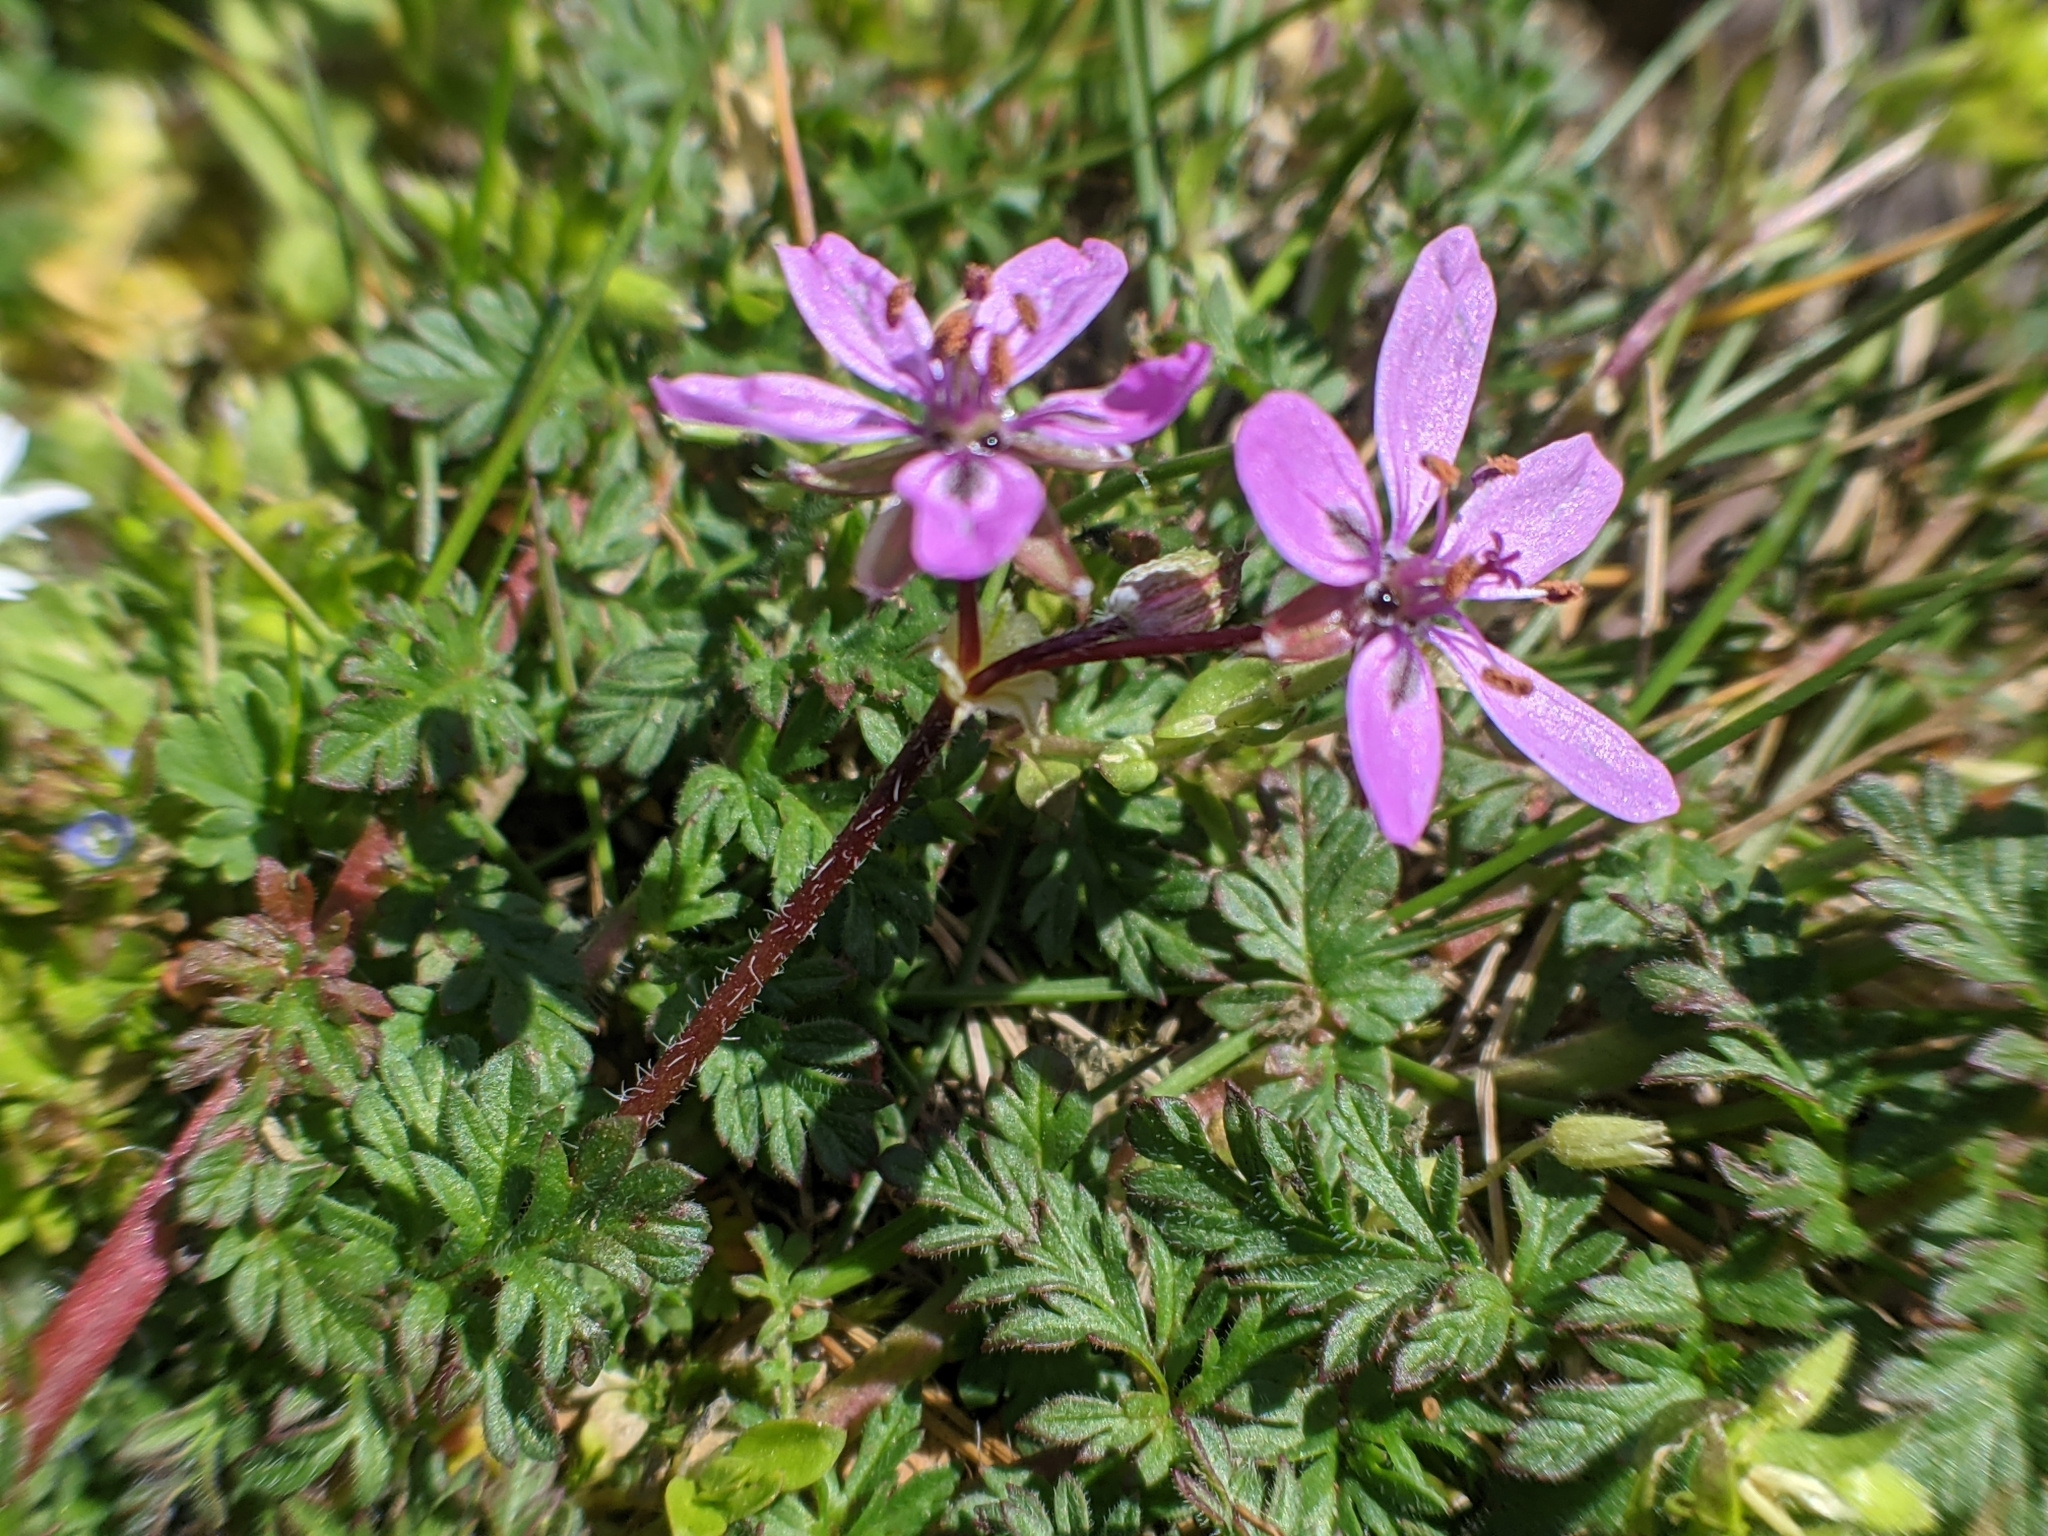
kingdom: Plantae
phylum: Tracheophyta
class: Magnoliopsida
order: Geraniales
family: Geraniaceae
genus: Erodium
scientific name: Erodium cicutarium
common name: Common stork's-bill
